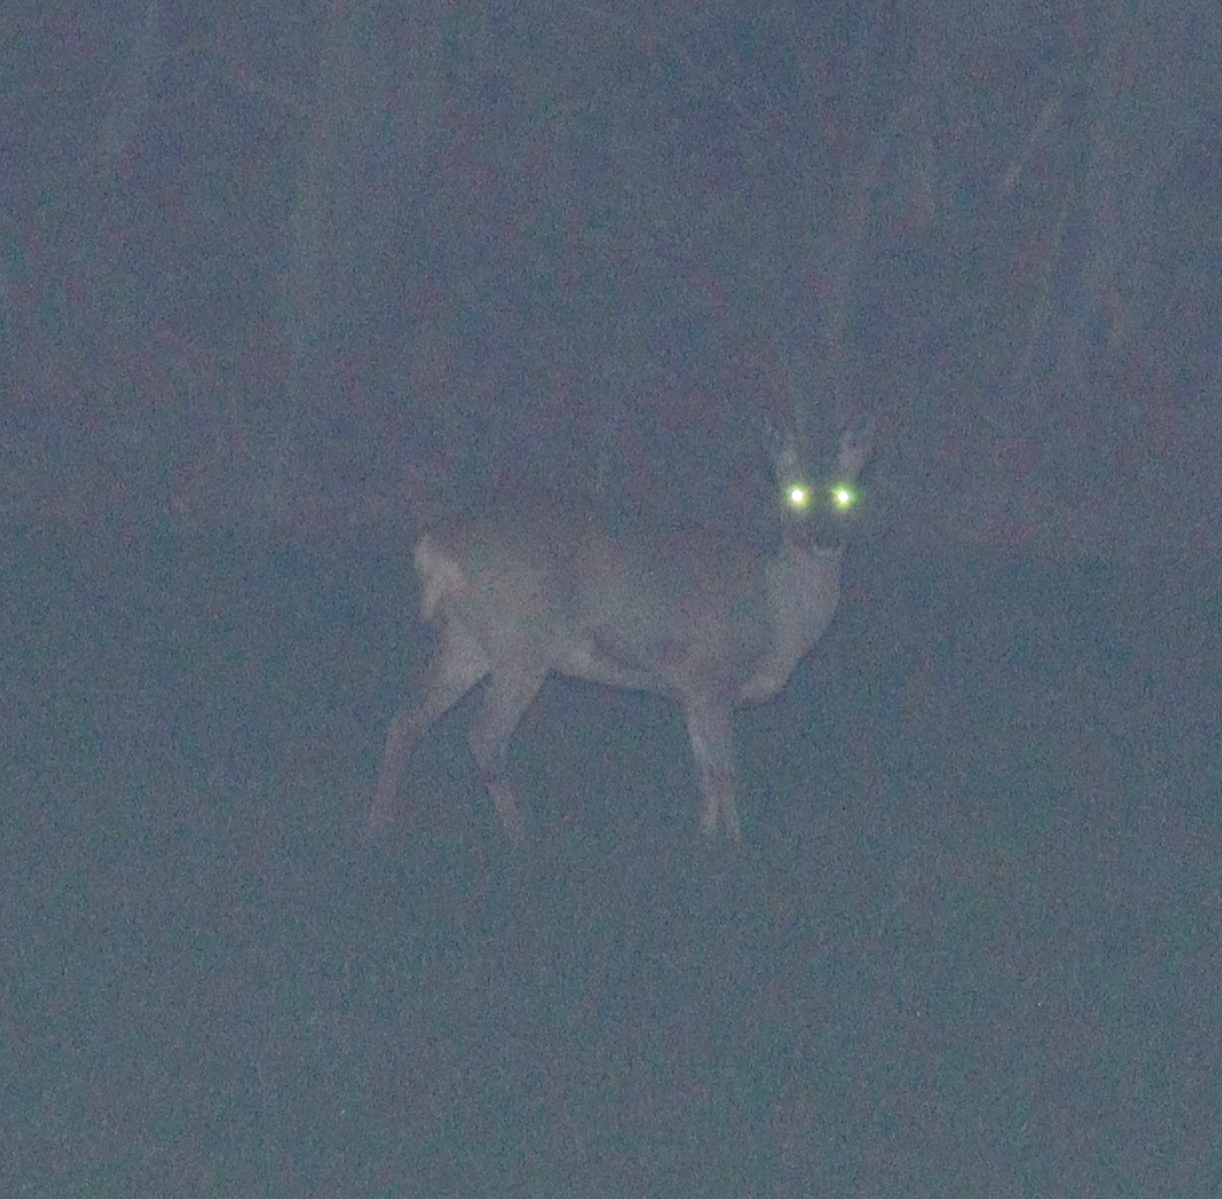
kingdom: Animalia
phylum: Chordata
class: Mammalia
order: Artiodactyla
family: Cervidae
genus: Capreolus
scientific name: Capreolus capreolus
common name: Western roe deer
